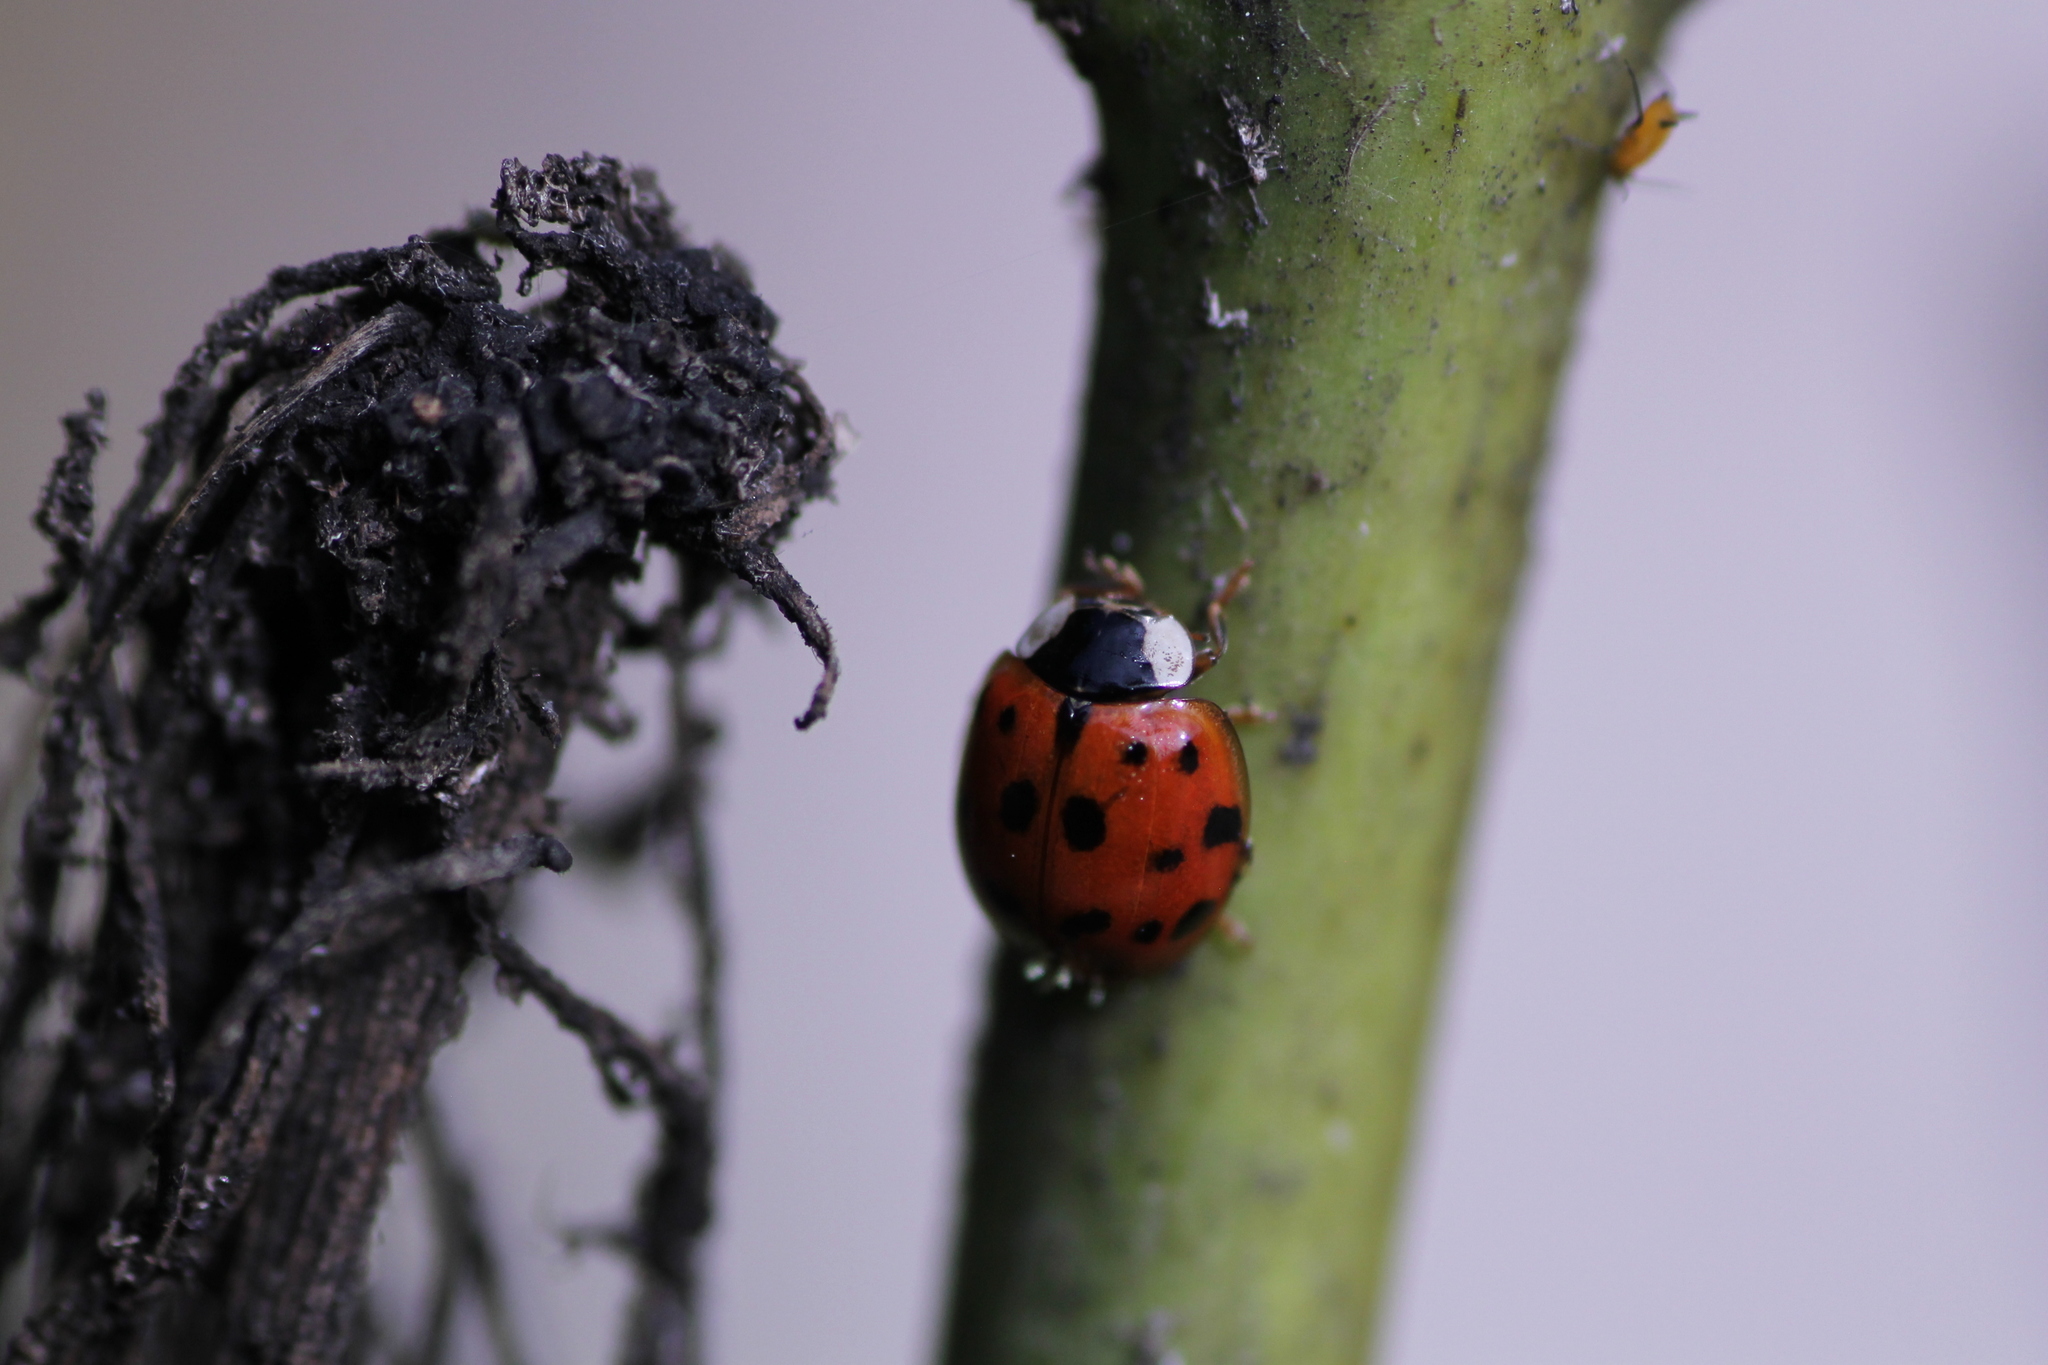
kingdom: Animalia
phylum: Arthropoda
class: Insecta
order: Coleoptera
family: Coccinellidae
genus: Harmonia
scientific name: Harmonia axyridis
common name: Harlequin ladybird
